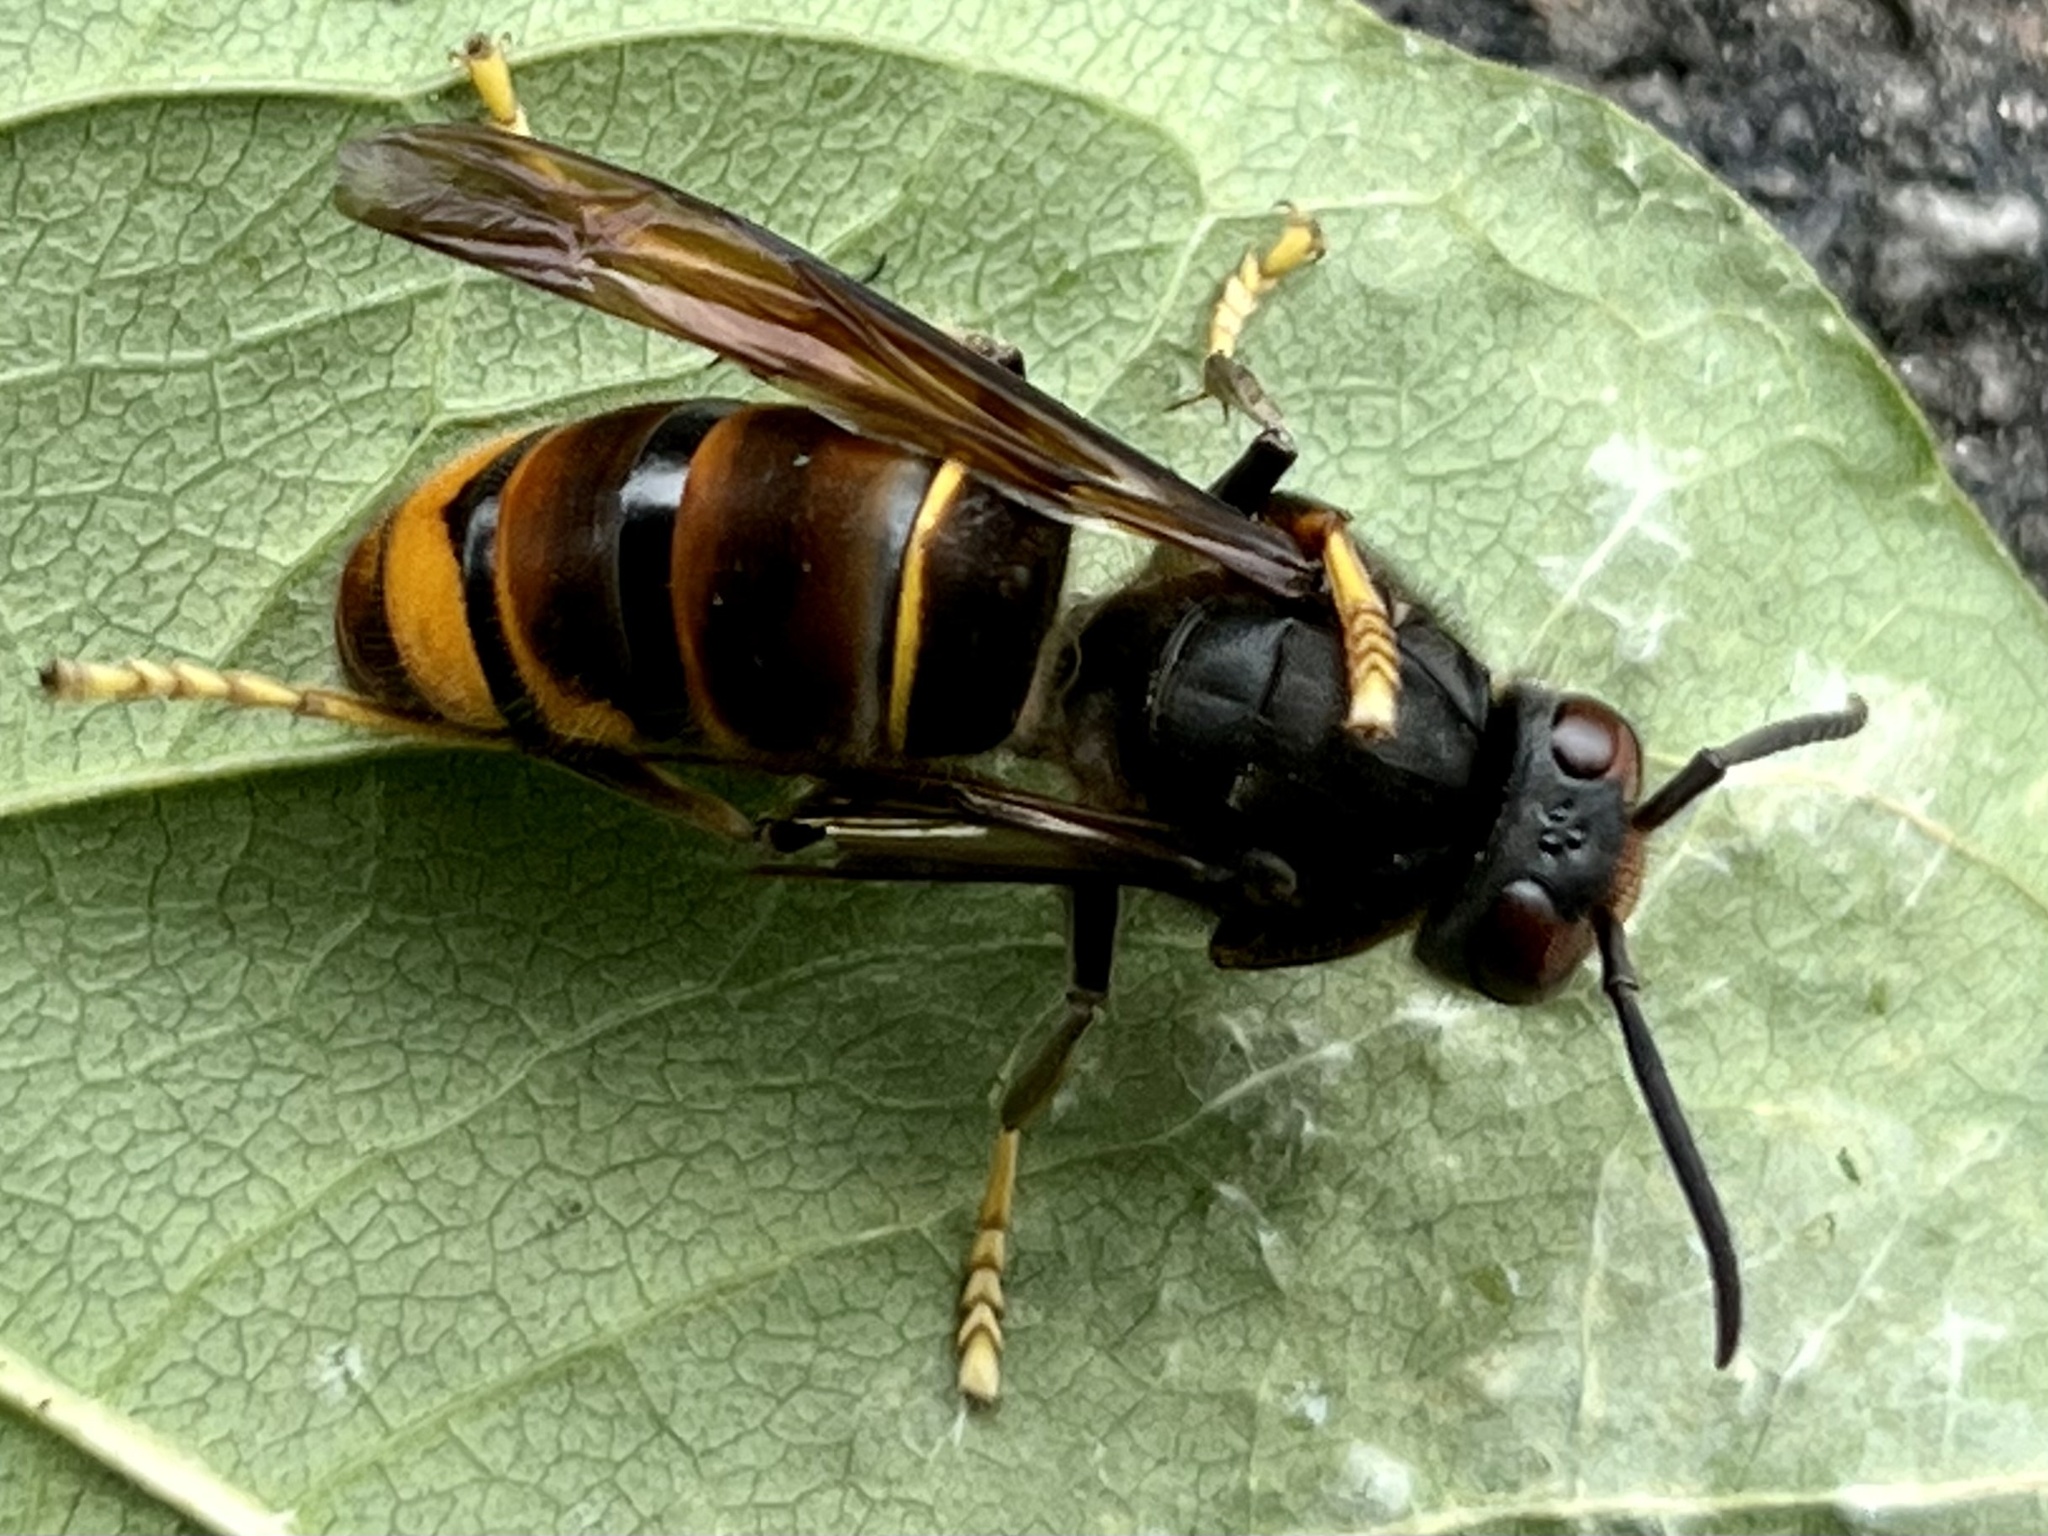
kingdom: Animalia
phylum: Arthropoda
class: Insecta
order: Hymenoptera
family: Vespidae
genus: Vespa
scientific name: Vespa velutina
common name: Asian hornet
